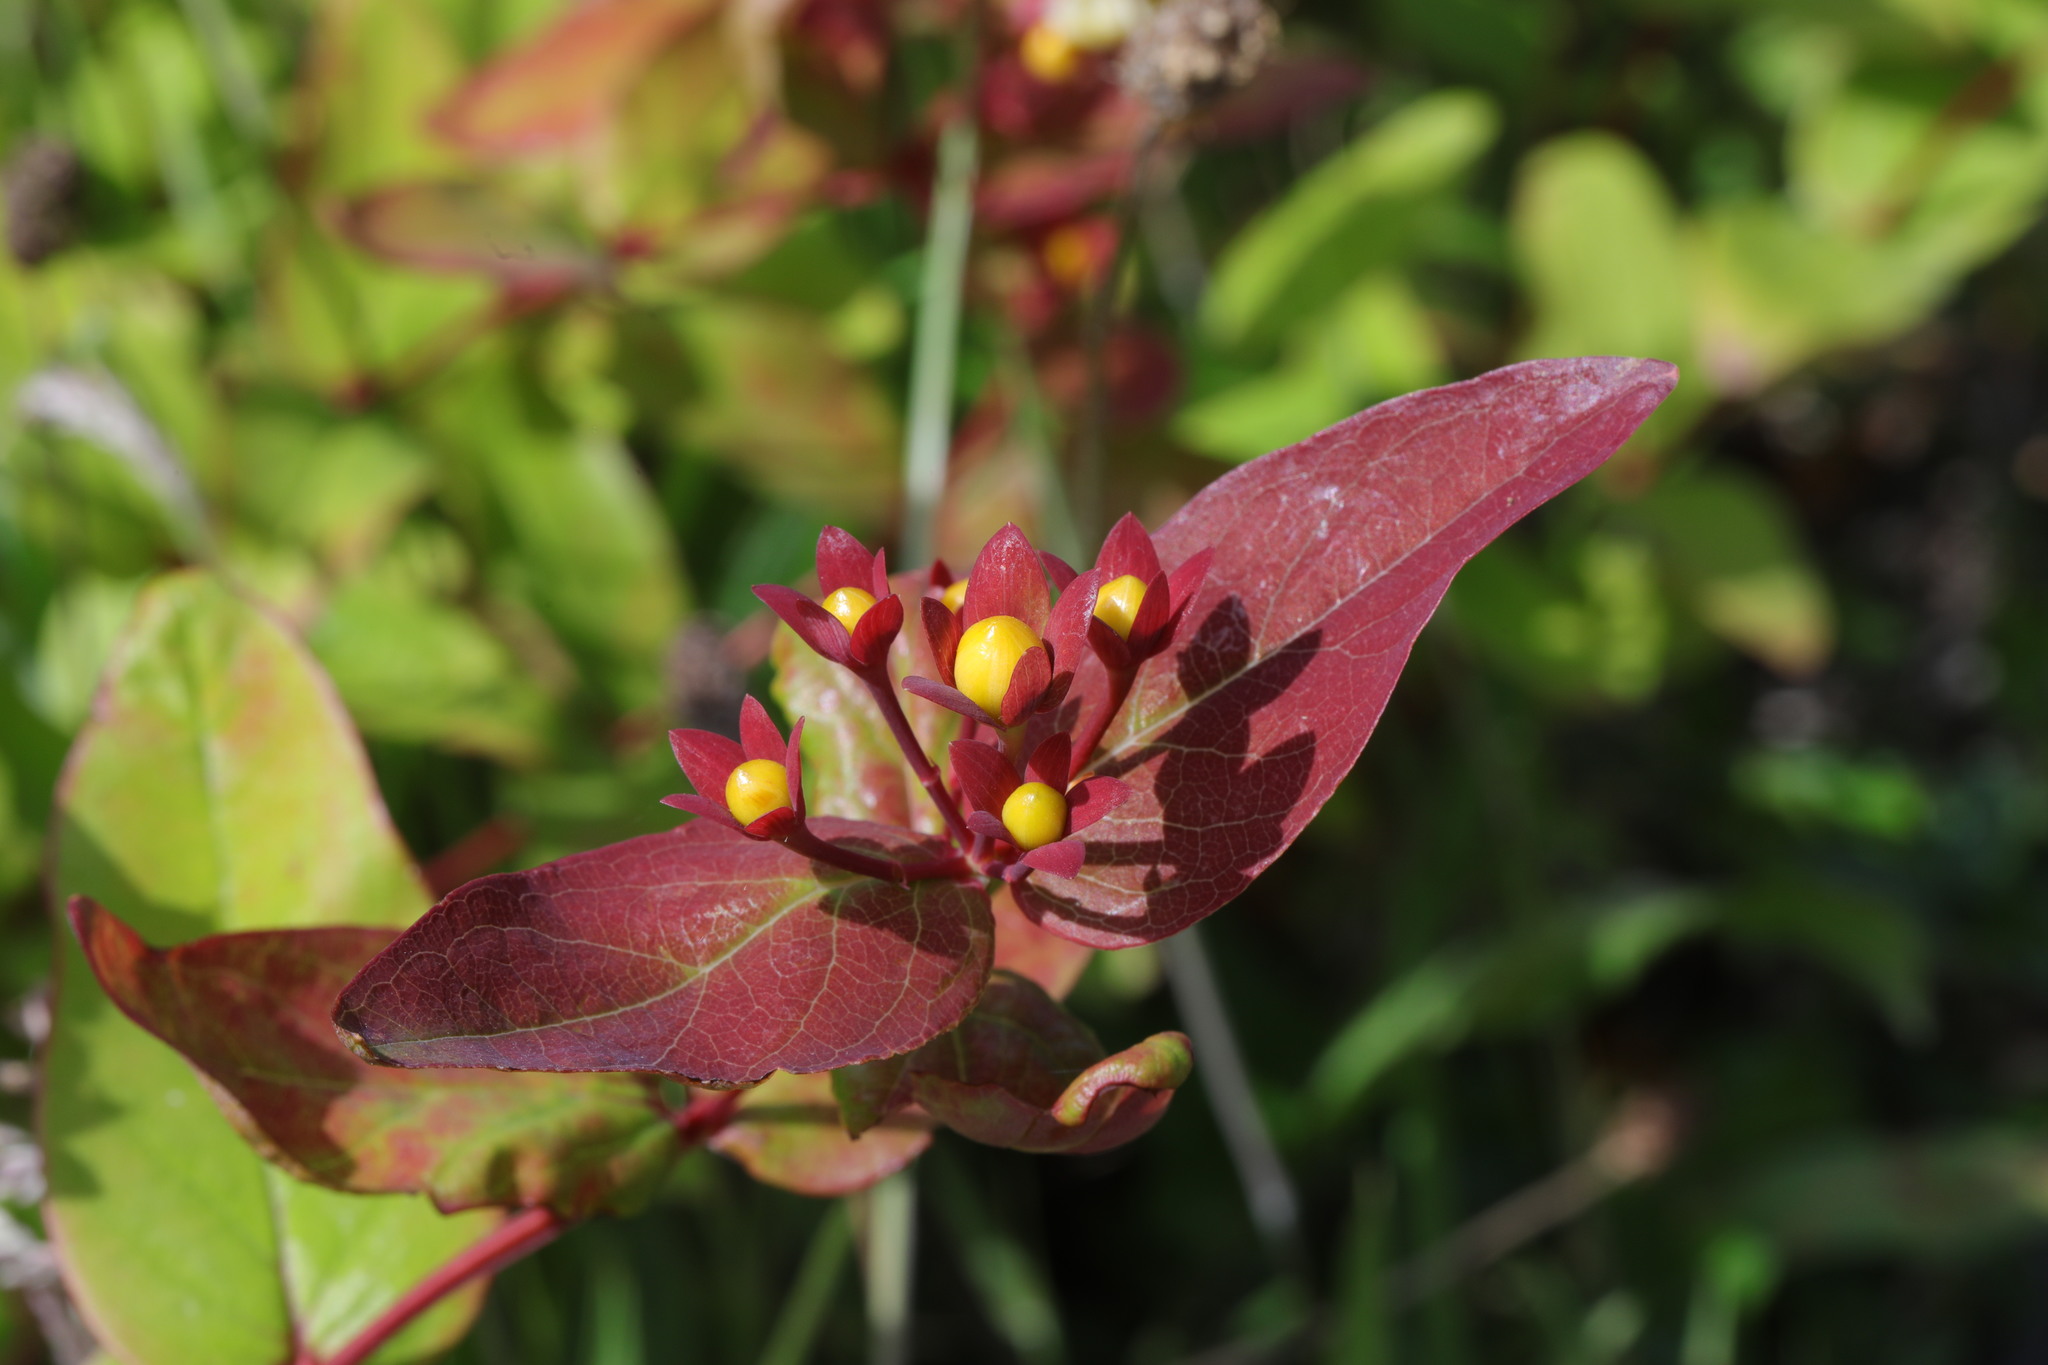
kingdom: Plantae
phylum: Tracheophyta
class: Magnoliopsida
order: Malpighiales
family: Hypericaceae
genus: Hypericum
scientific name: Hypericum androsaemum
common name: Sweet-amber
